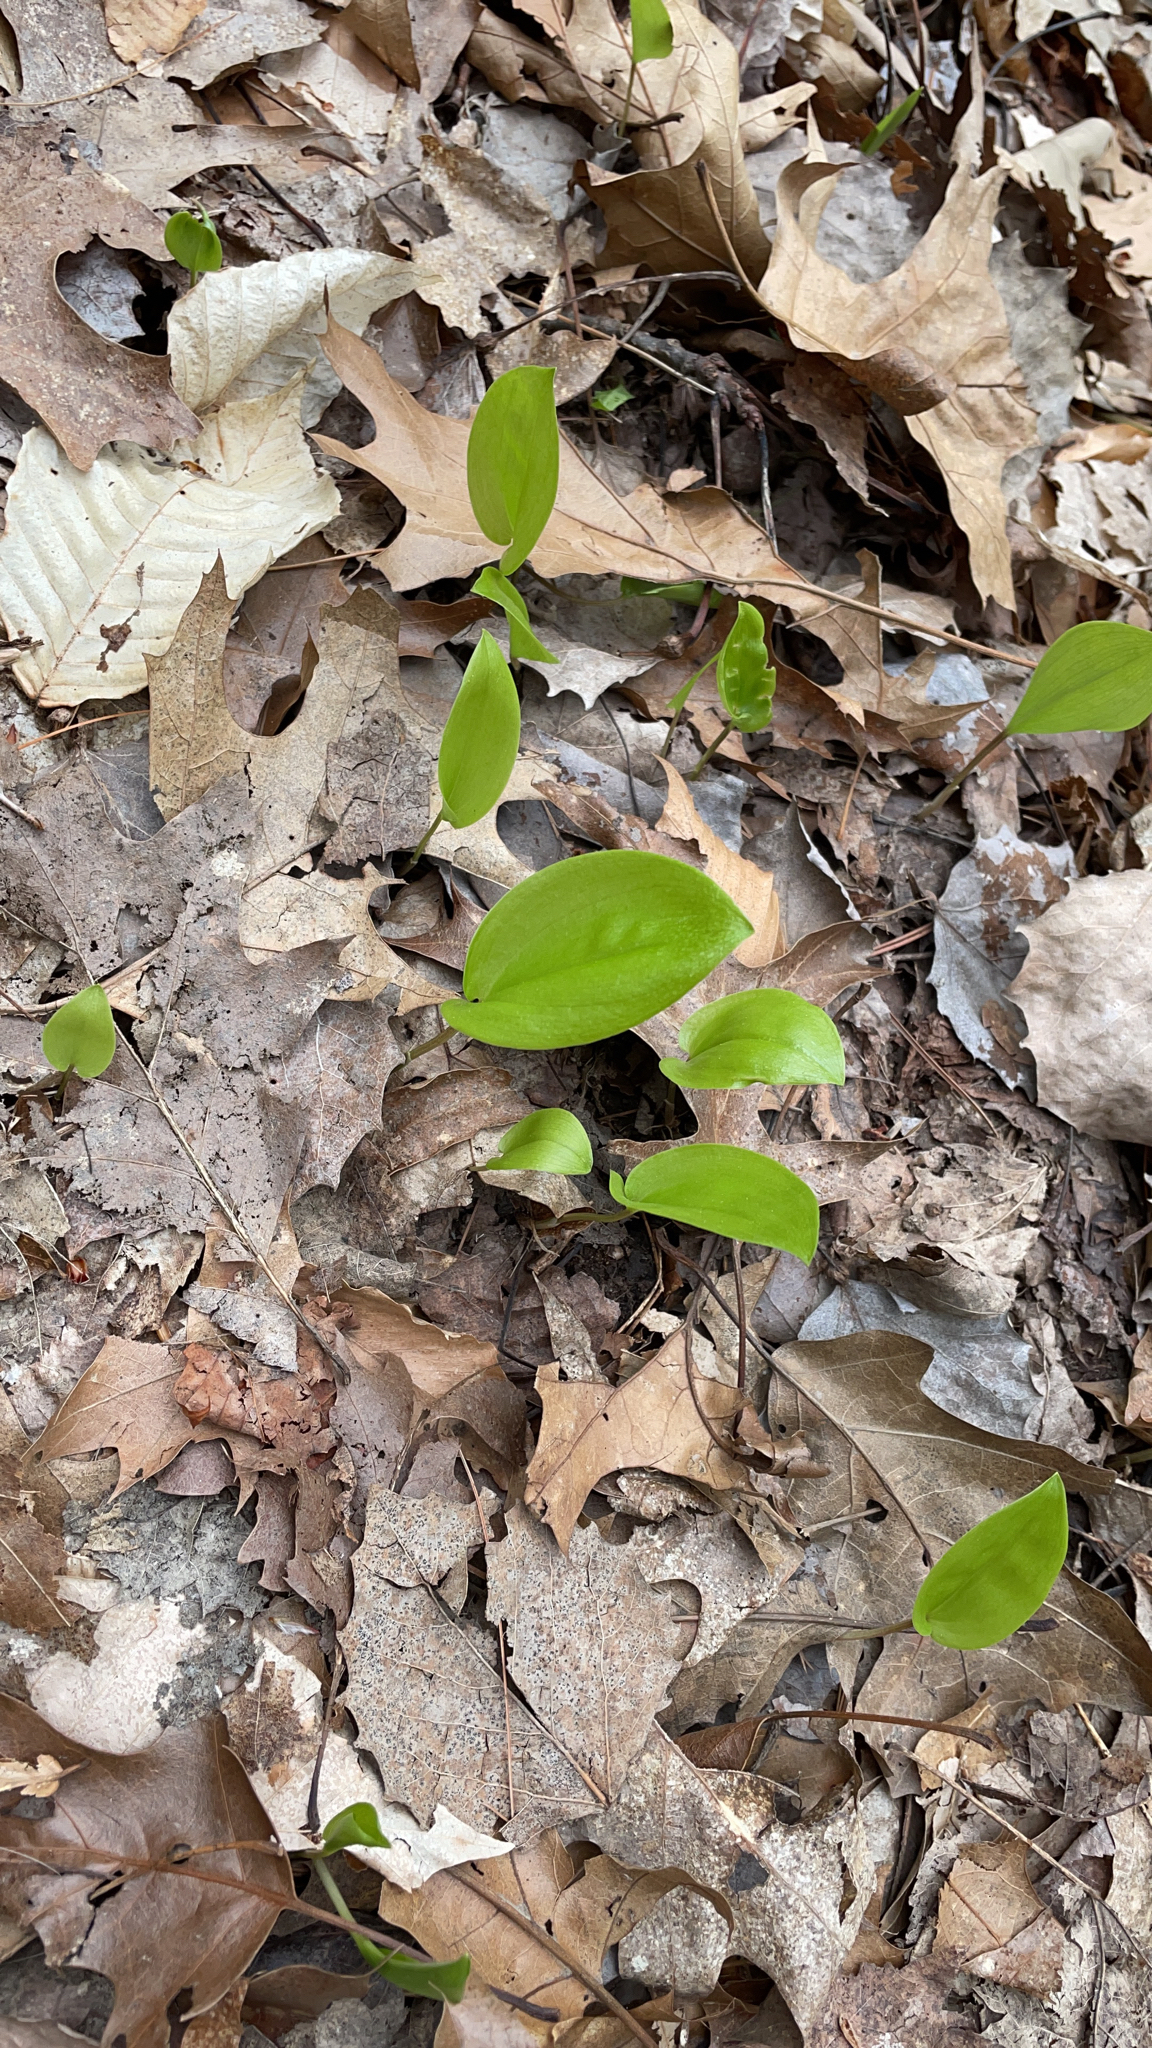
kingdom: Plantae
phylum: Tracheophyta
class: Liliopsida
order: Asparagales
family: Asparagaceae
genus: Maianthemum
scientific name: Maianthemum canadense
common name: False lily-of-the-valley
